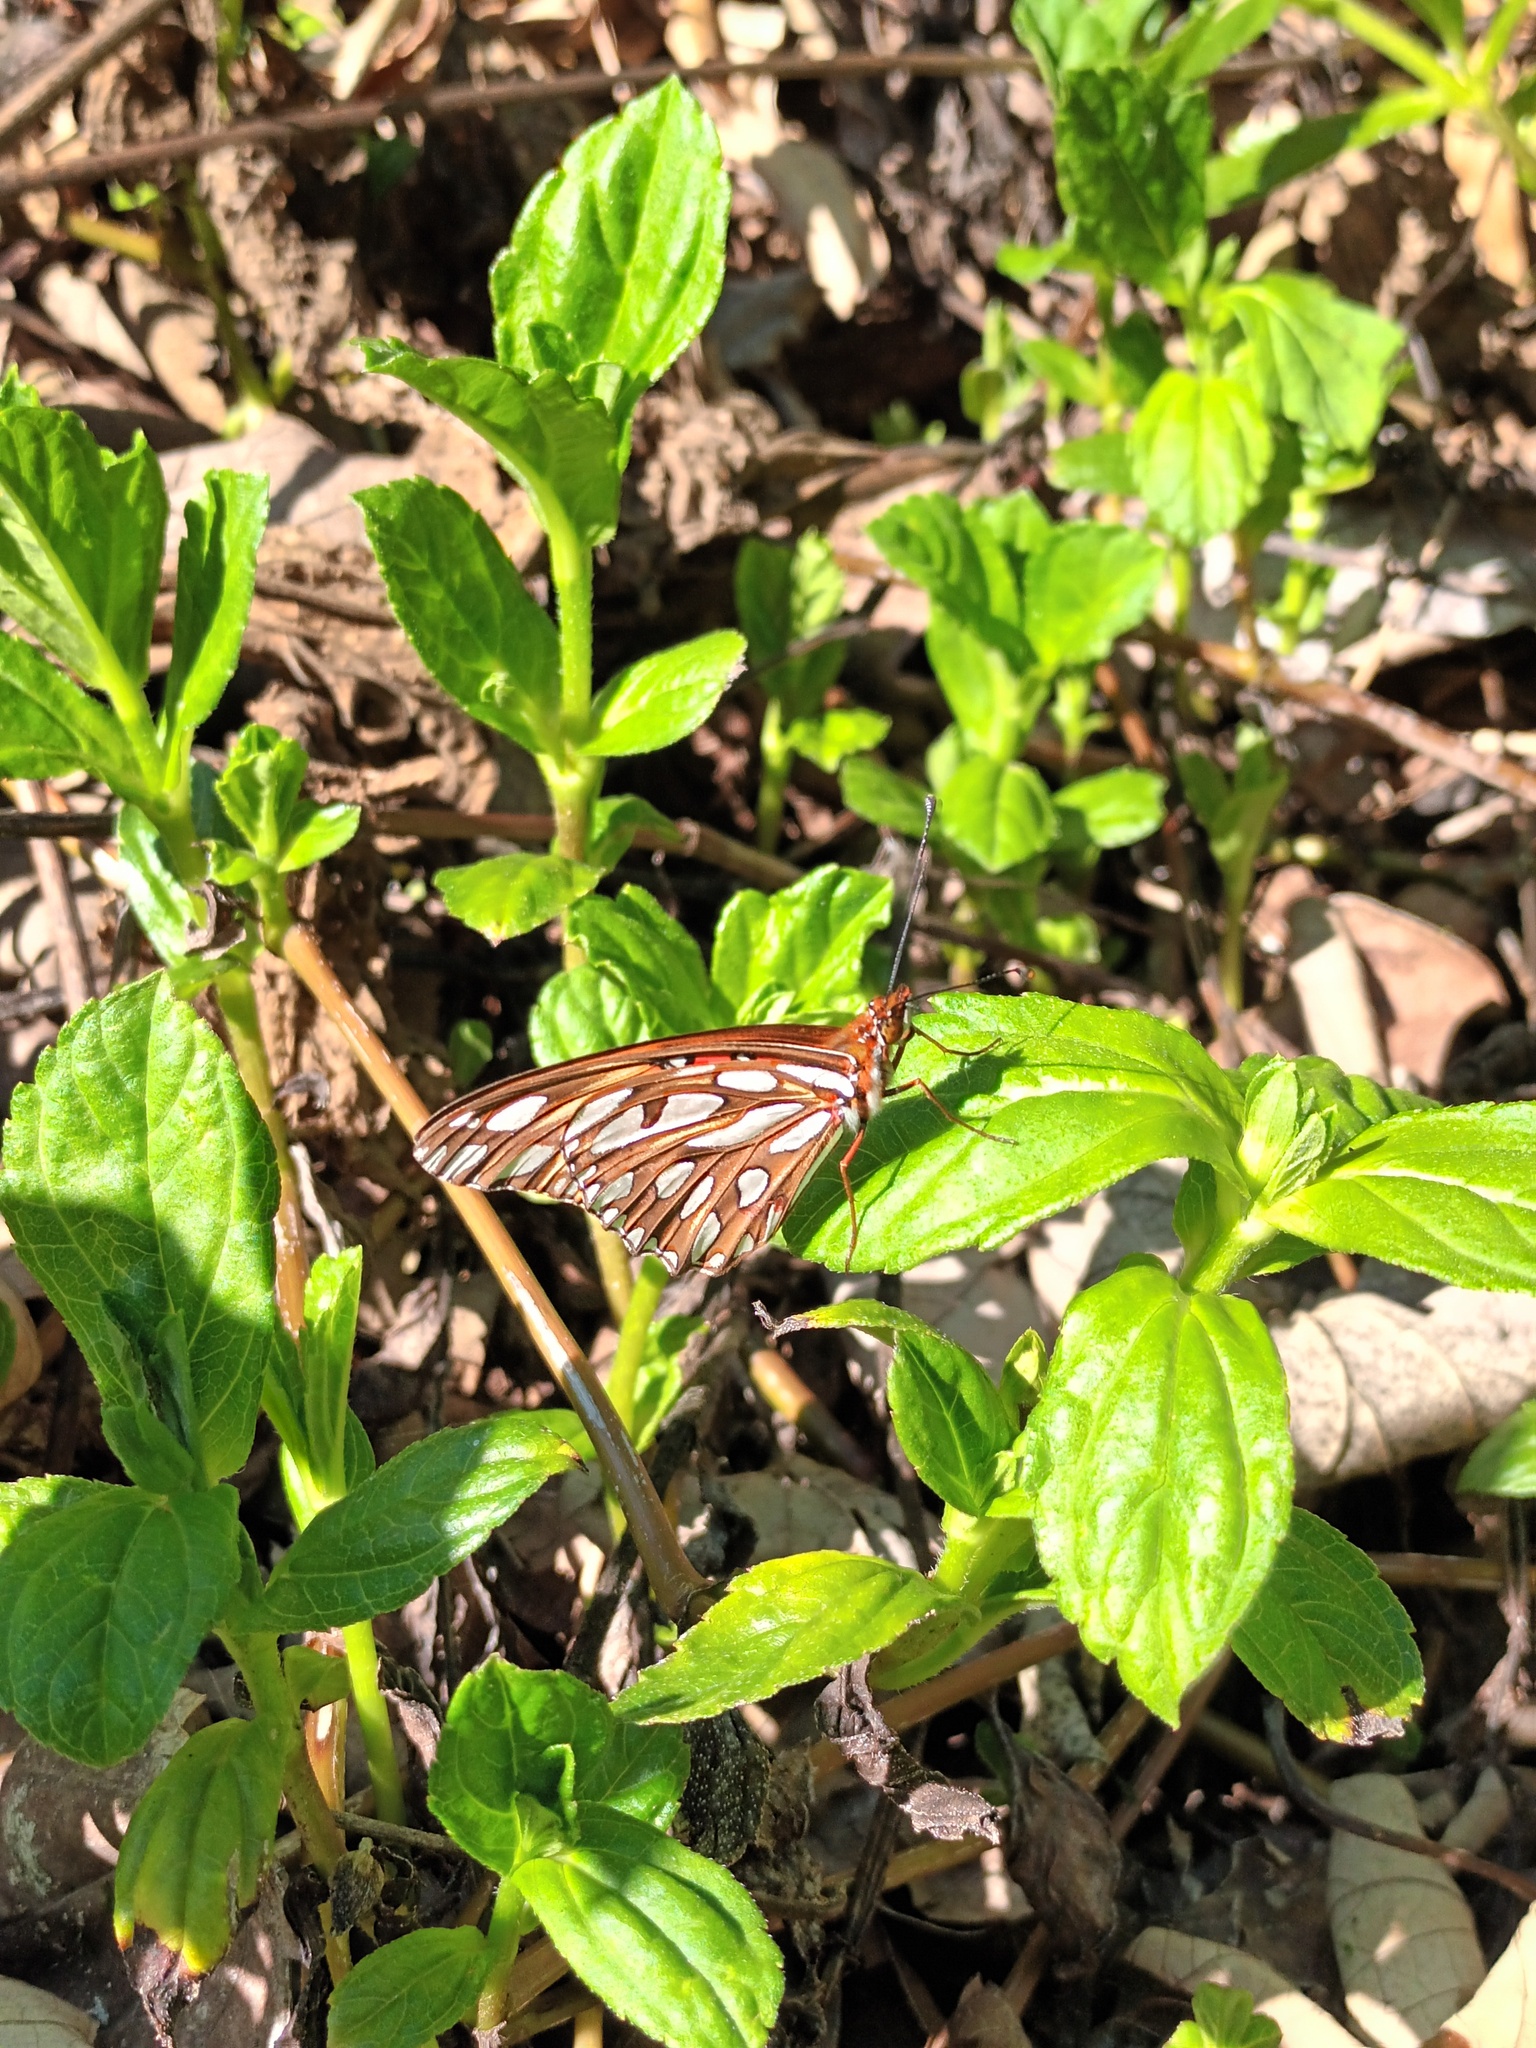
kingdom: Animalia
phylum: Arthropoda
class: Insecta
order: Lepidoptera
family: Nymphalidae
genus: Dione
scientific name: Dione vanillae
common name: Gulf fritillary
